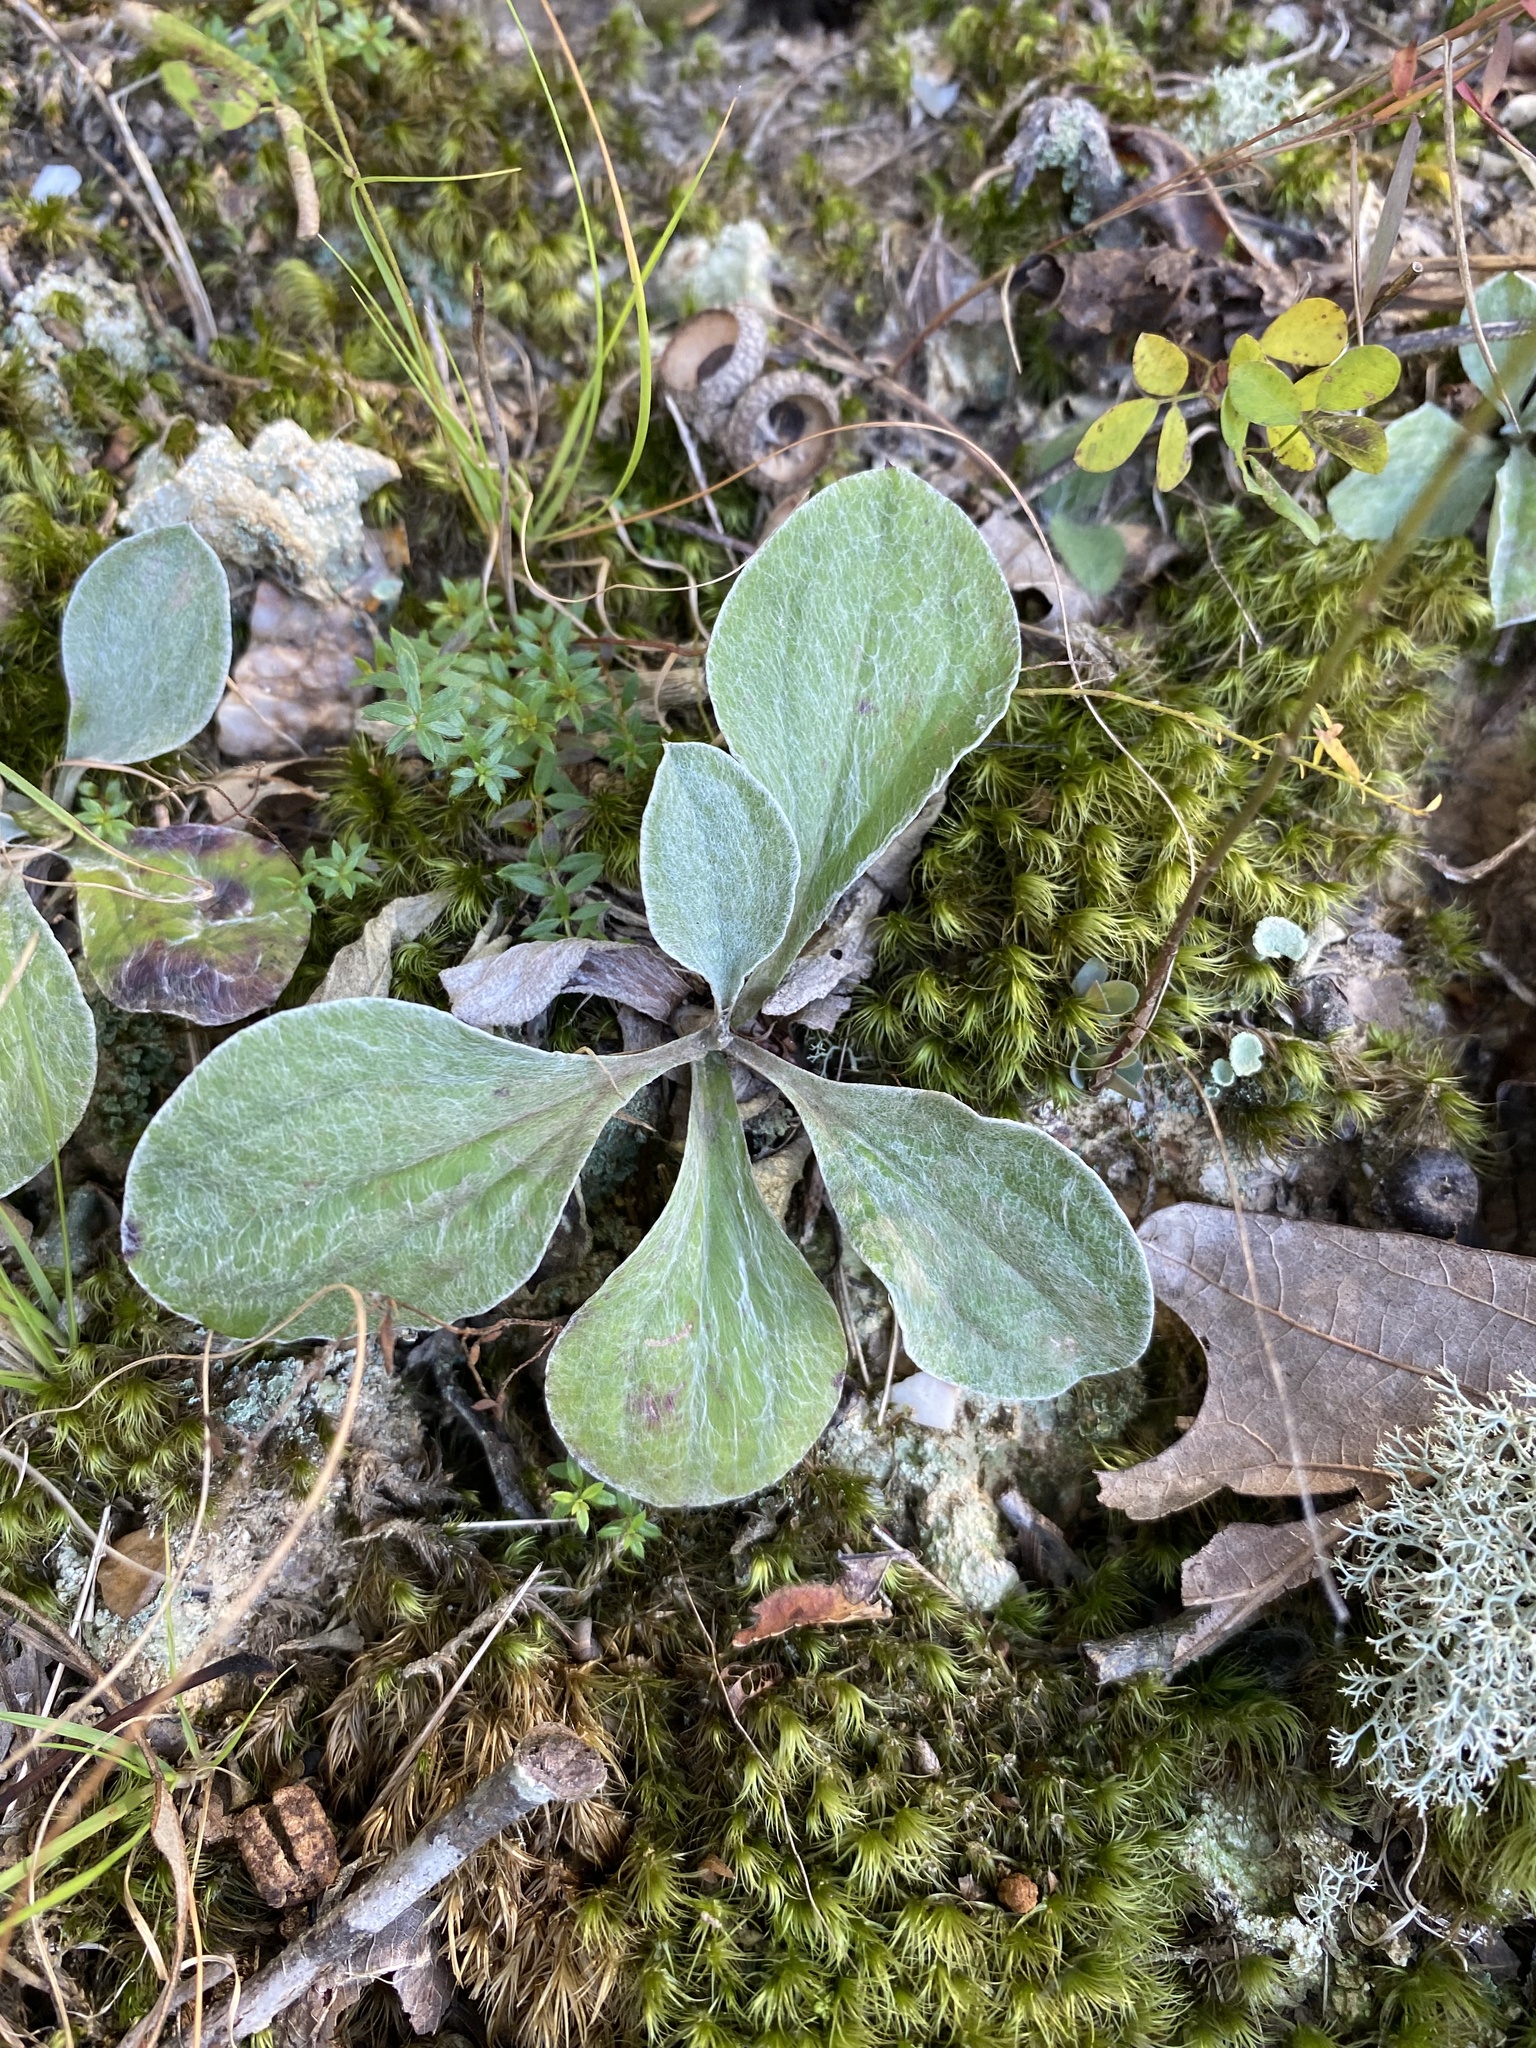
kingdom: Plantae
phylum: Tracheophyta
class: Magnoliopsida
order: Asterales
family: Asteraceae
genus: Antennaria
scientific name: Antennaria plantaginifolia
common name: Plantain-leaved pussytoes
